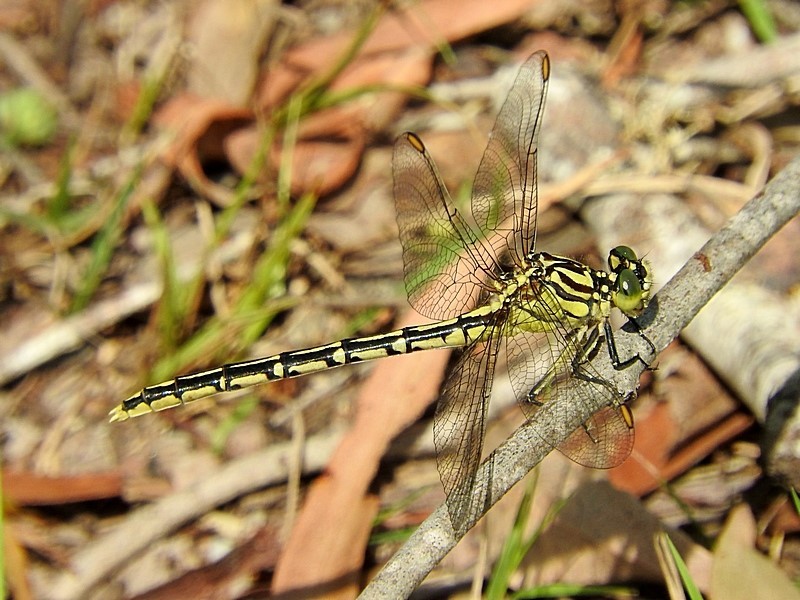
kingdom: Animalia
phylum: Arthropoda
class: Insecta
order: Odonata
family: Gomphidae
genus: Austrogomphus
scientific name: Austrogomphus guerini
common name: Yellow-striped hunter
